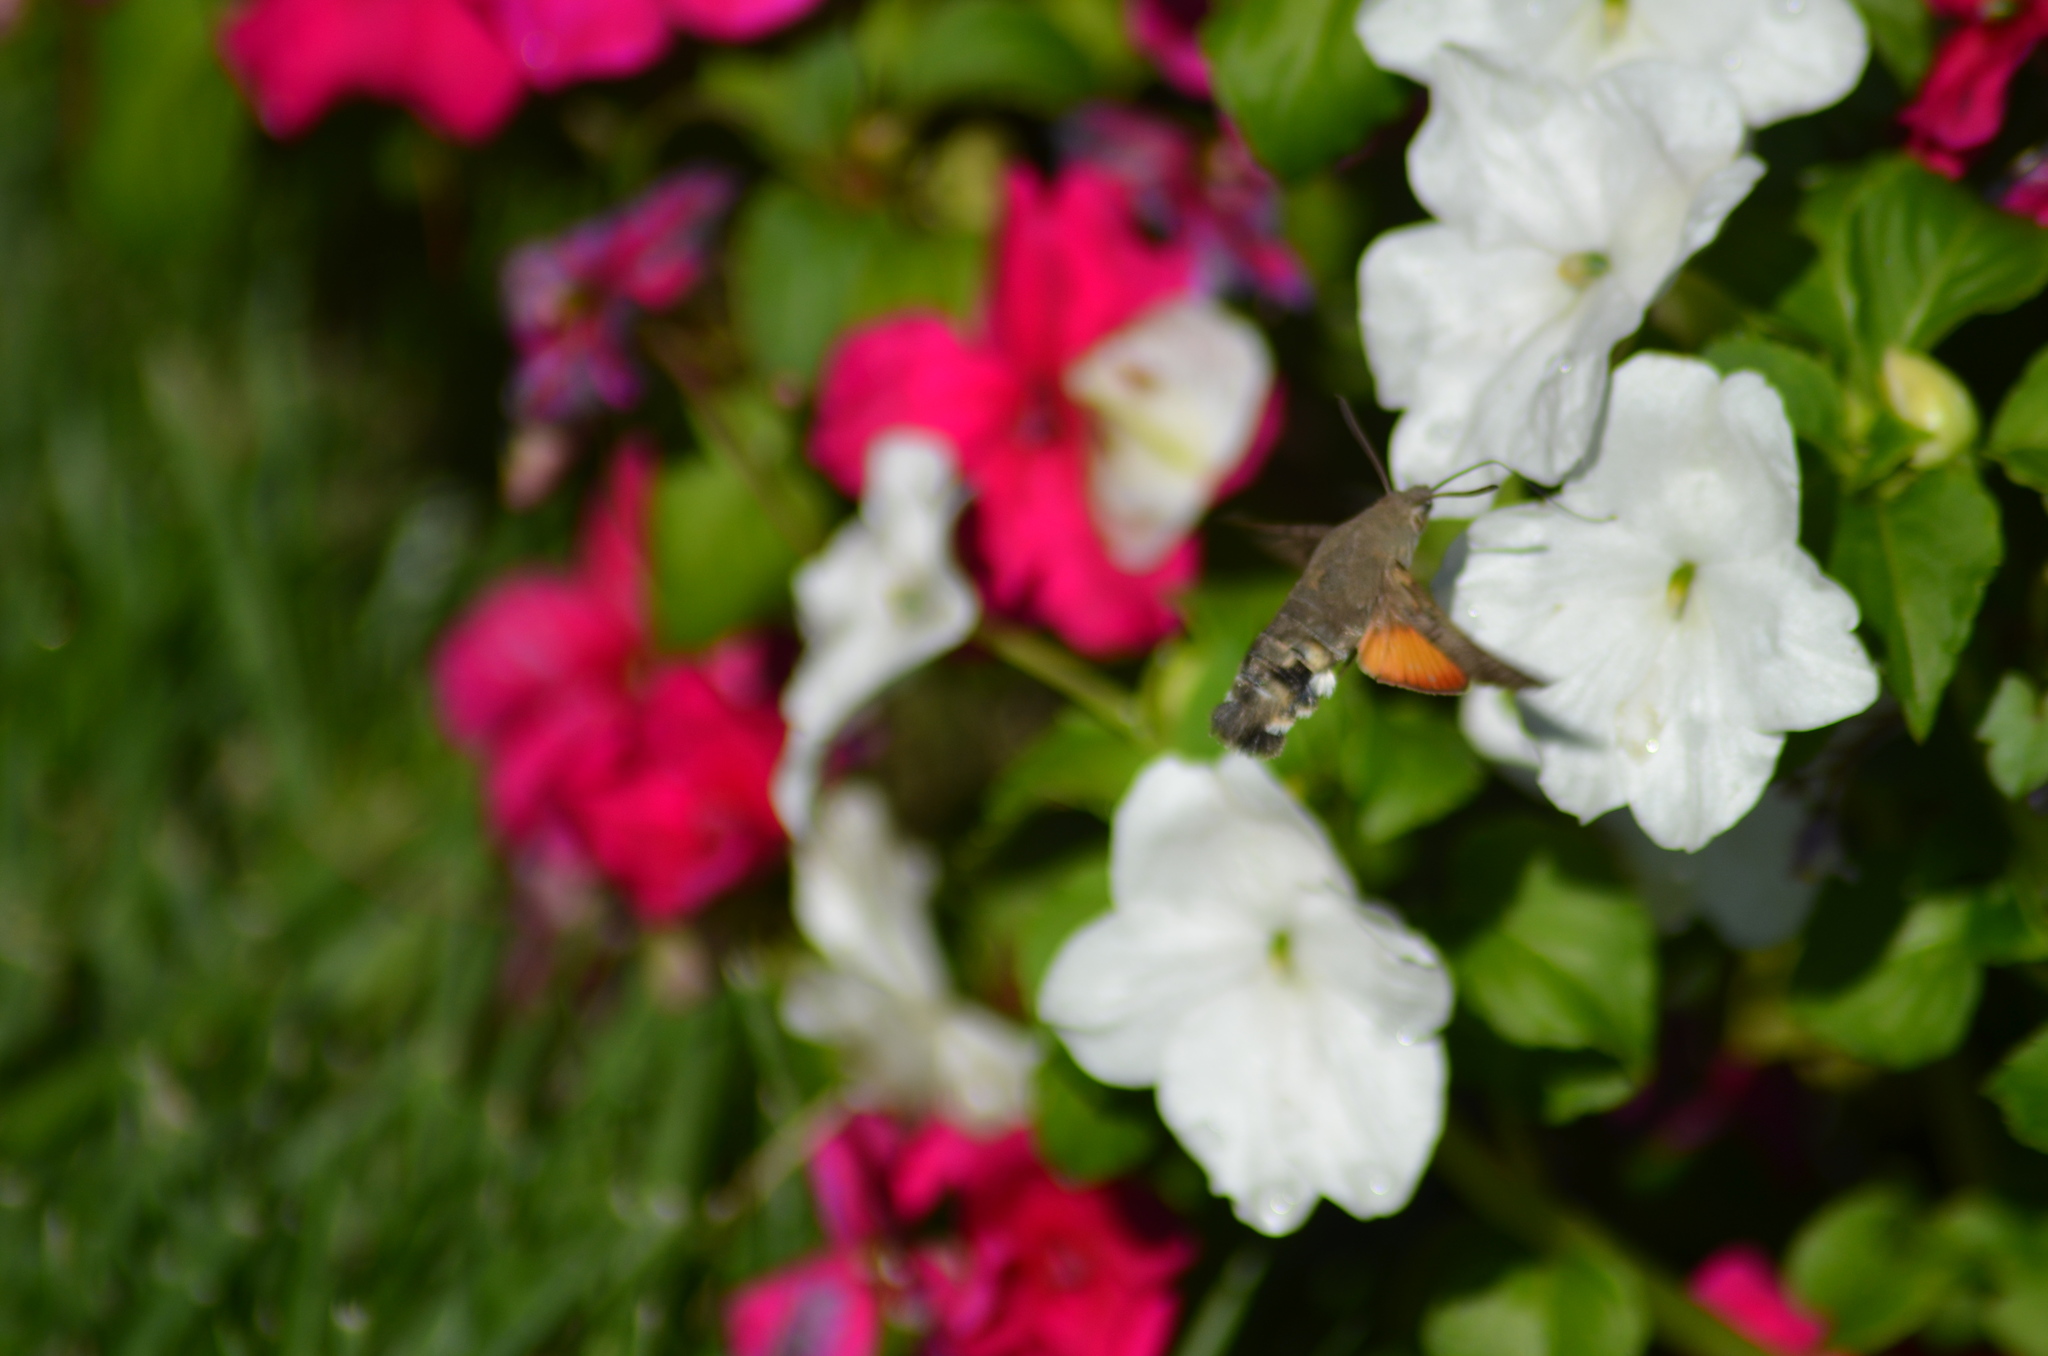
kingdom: Animalia
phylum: Arthropoda
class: Insecta
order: Lepidoptera
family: Sphingidae
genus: Macroglossum
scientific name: Macroglossum stellatarum
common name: Humming-bird hawk-moth
